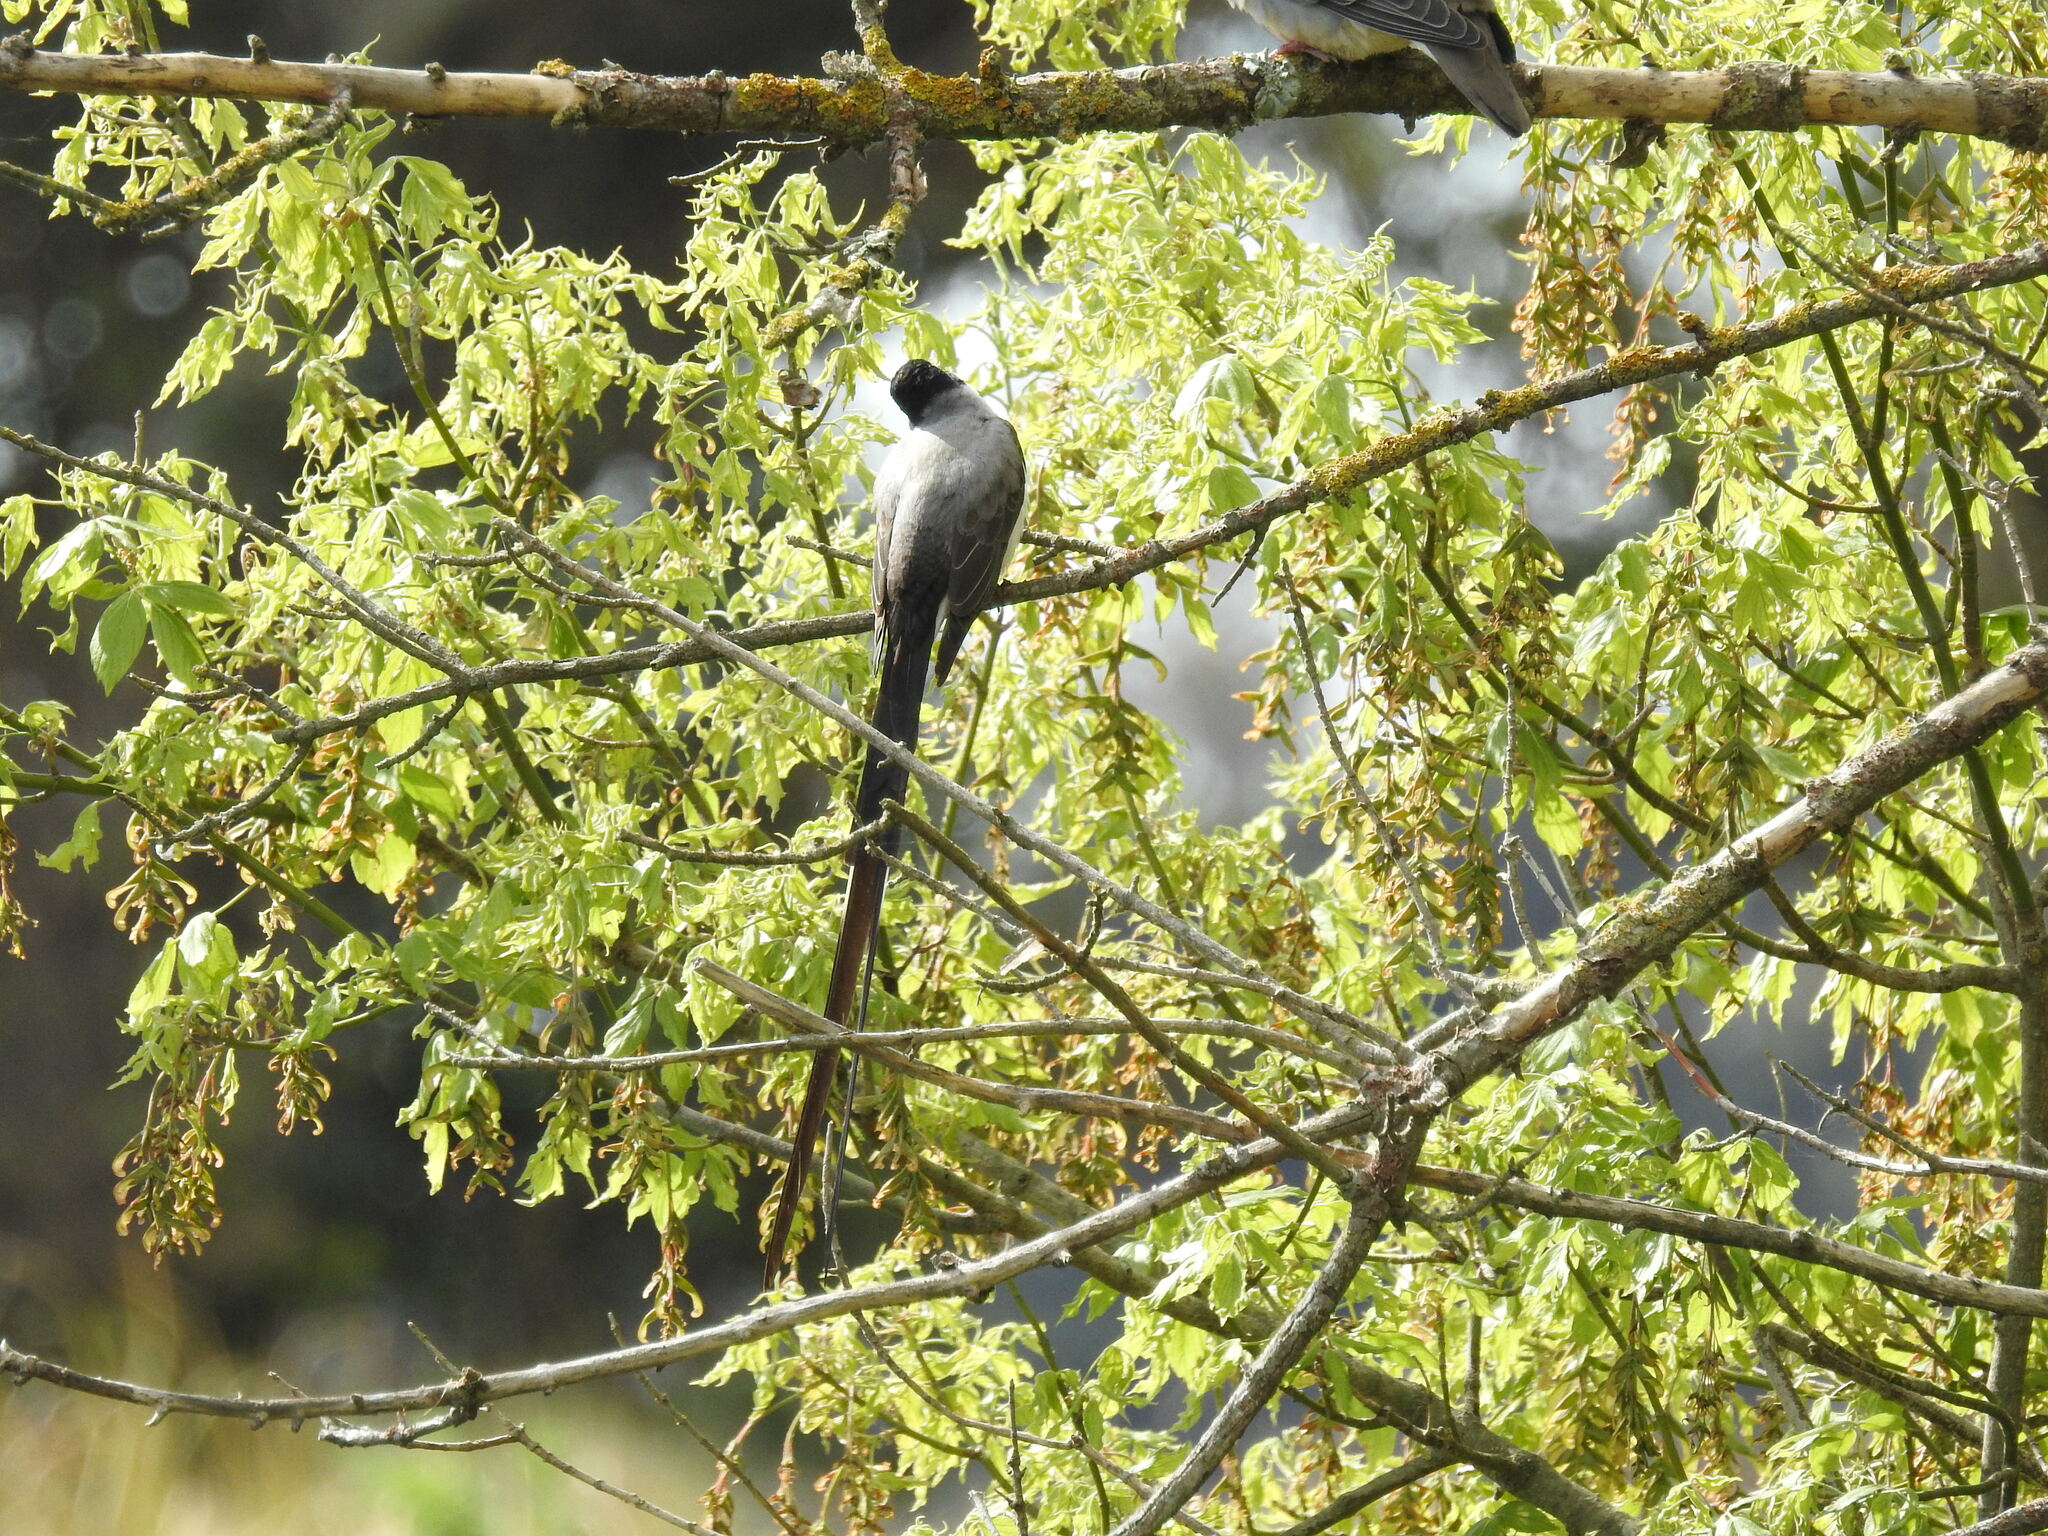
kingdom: Animalia
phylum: Chordata
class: Aves
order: Passeriformes
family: Tyrannidae
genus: Tyrannus
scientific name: Tyrannus savana
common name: Fork-tailed flycatcher
